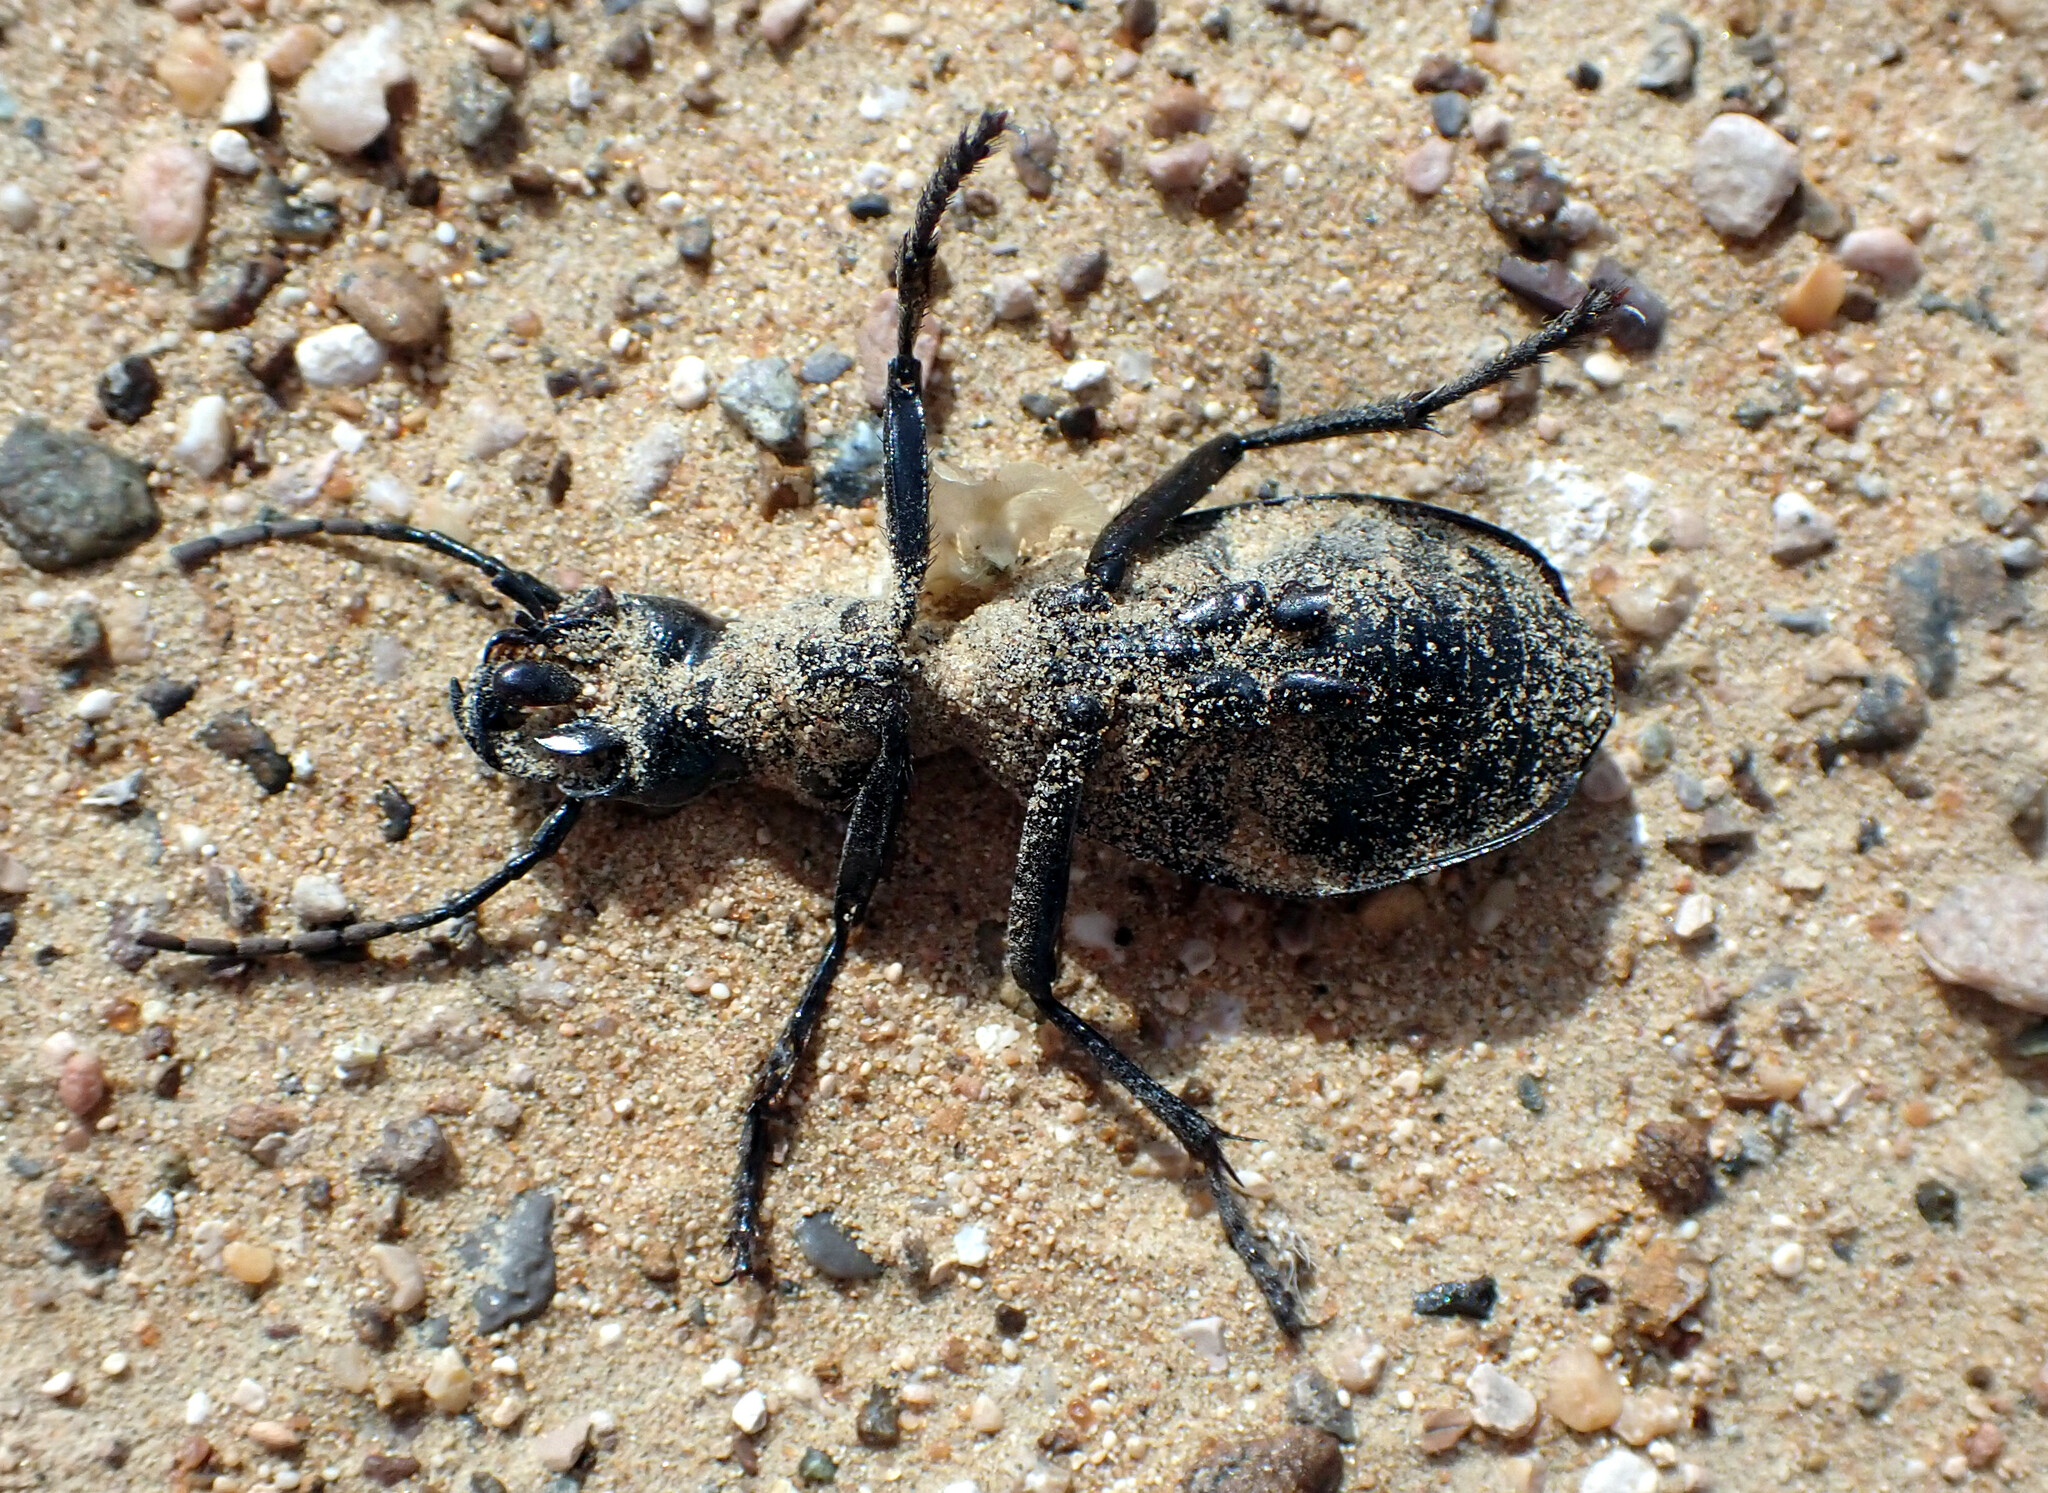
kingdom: Animalia
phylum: Arthropoda
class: Insecta
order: Coleoptera
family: Carabidae
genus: Anthia
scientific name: Anthia duodecimguttata
